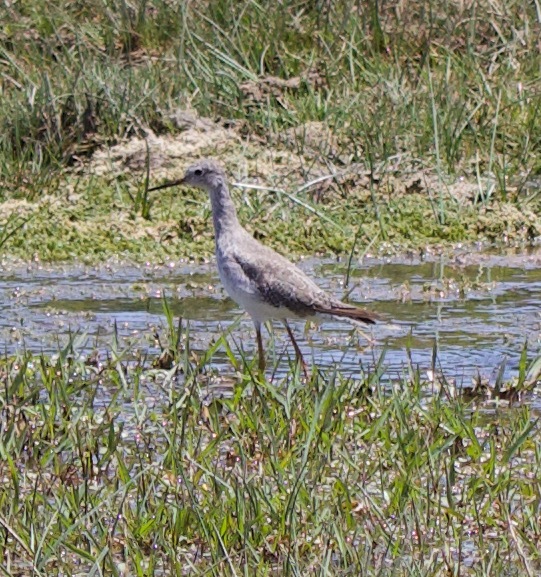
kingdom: Animalia
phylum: Chordata
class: Aves
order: Charadriiformes
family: Scolopacidae
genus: Tringa
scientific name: Tringa flavipes
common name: Lesser yellowlegs
